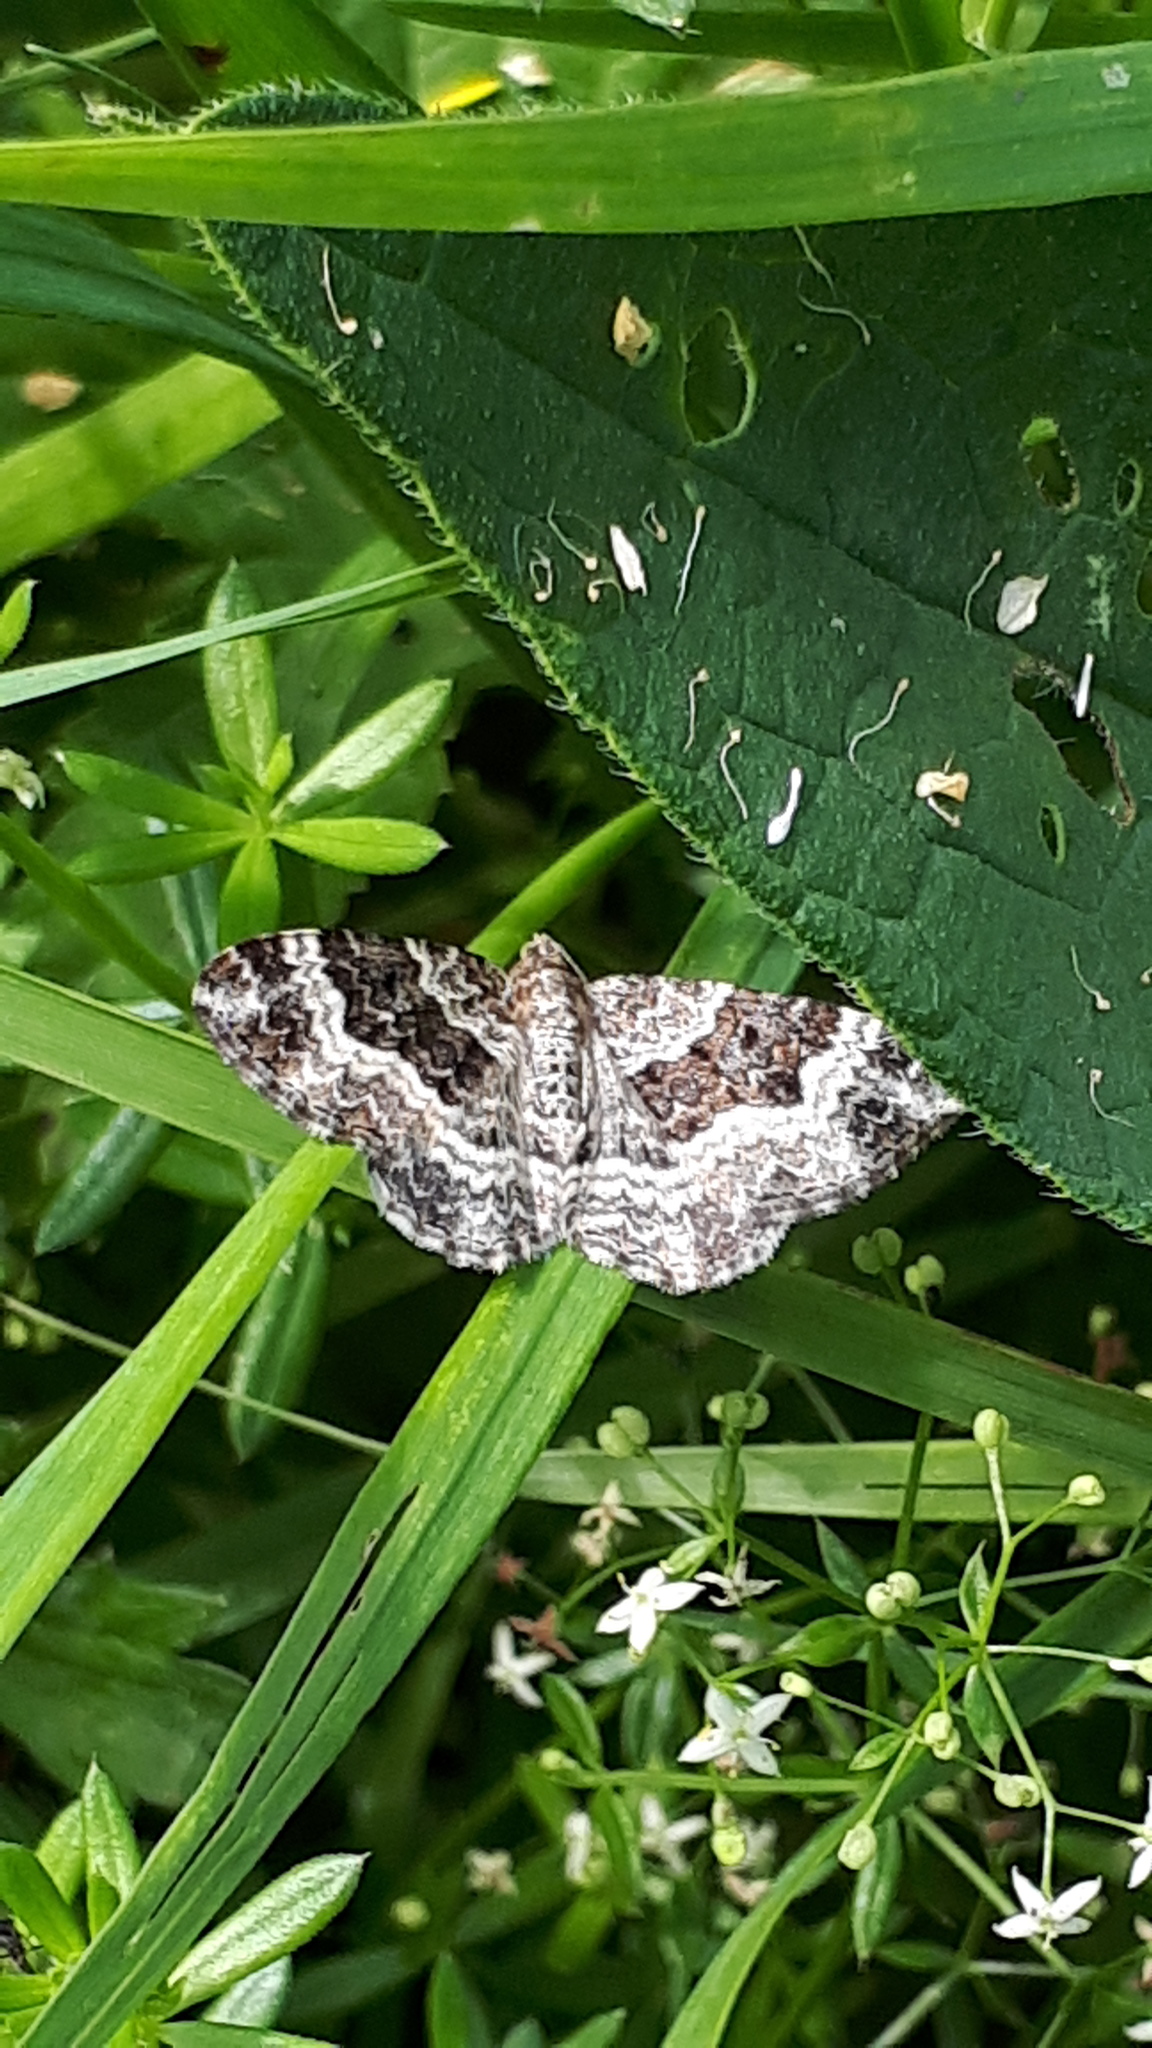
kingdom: Animalia
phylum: Arthropoda
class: Insecta
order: Lepidoptera
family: Geometridae
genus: Epirrhoe
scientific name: Epirrhoe alternata
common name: Common carpet
